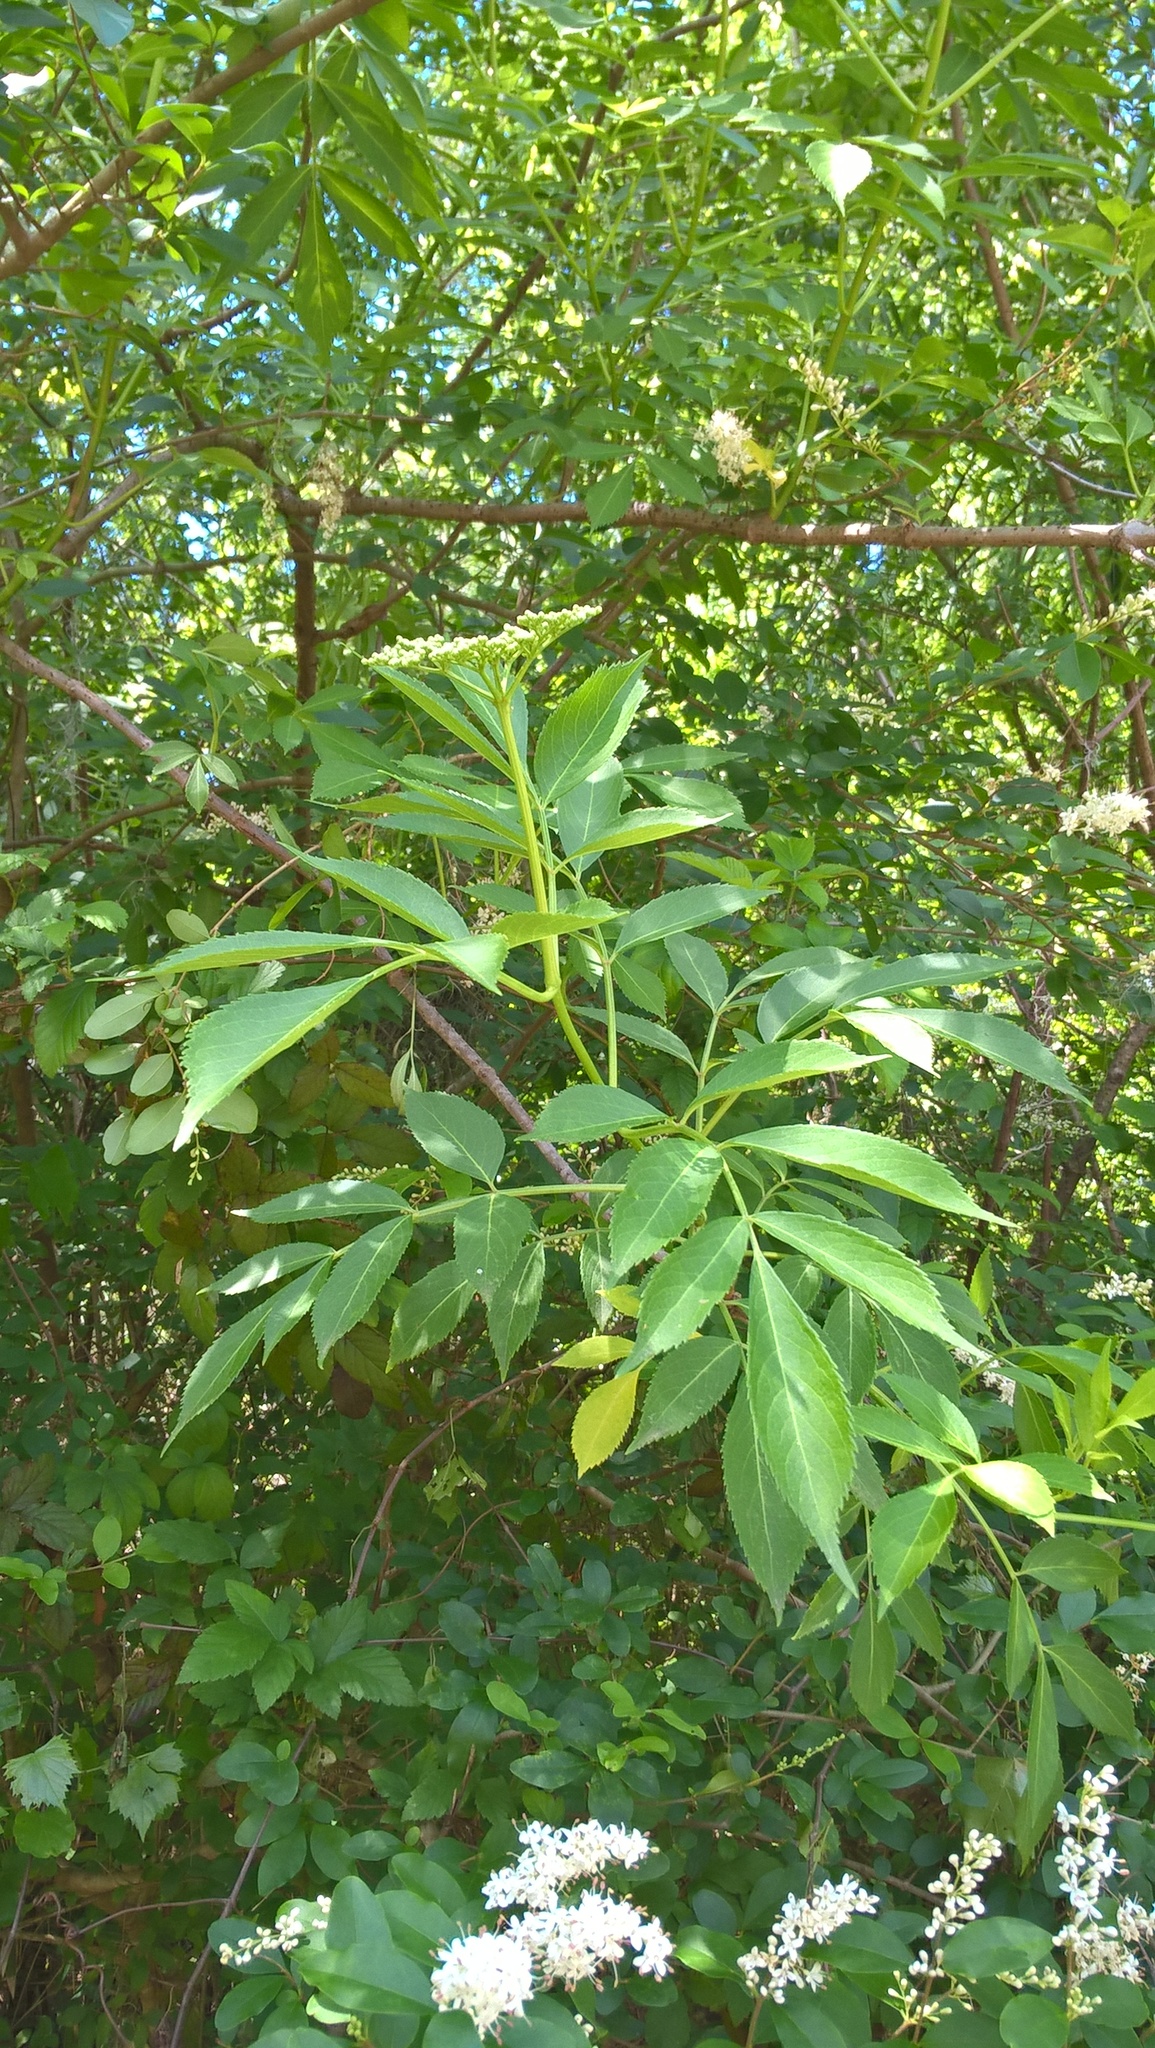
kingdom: Plantae
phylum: Tracheophyta
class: Magnoliopsida
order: Dipsacales
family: Viburnaceae
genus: Sambucus
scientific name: Sambucus canadensis
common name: American elder
